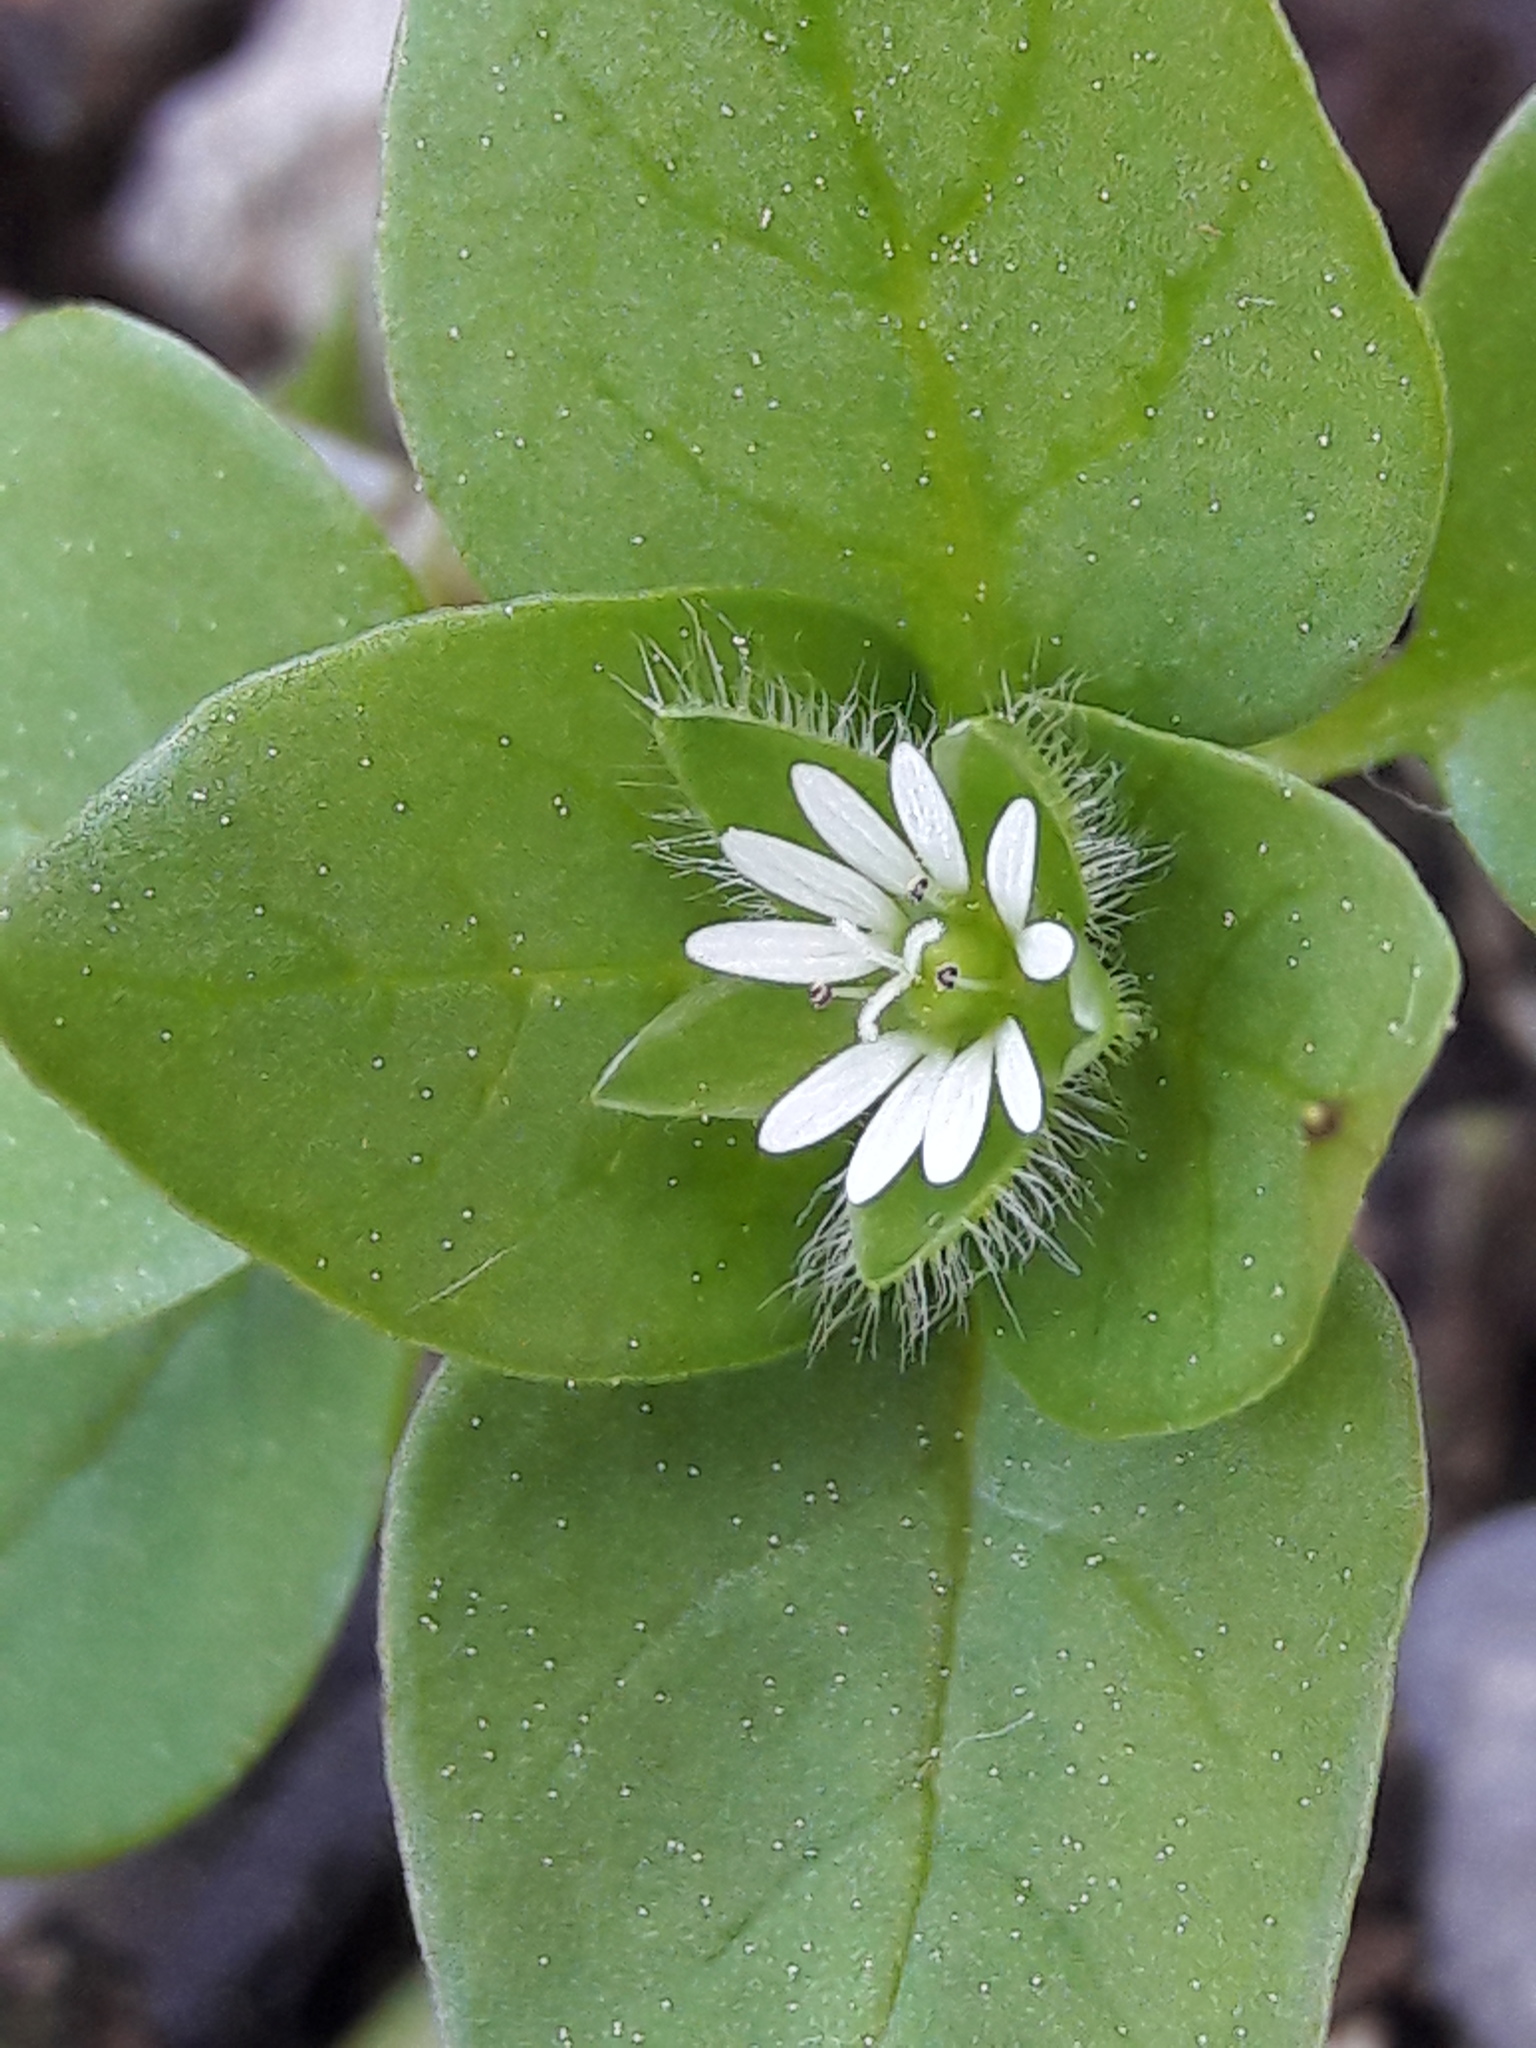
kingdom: Plantae
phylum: Tracheophyta
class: Magnoliopsida
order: Caryophyllales
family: Caryophyllaceae
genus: Stellaria
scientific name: Stellaria media
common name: Common chickweed
